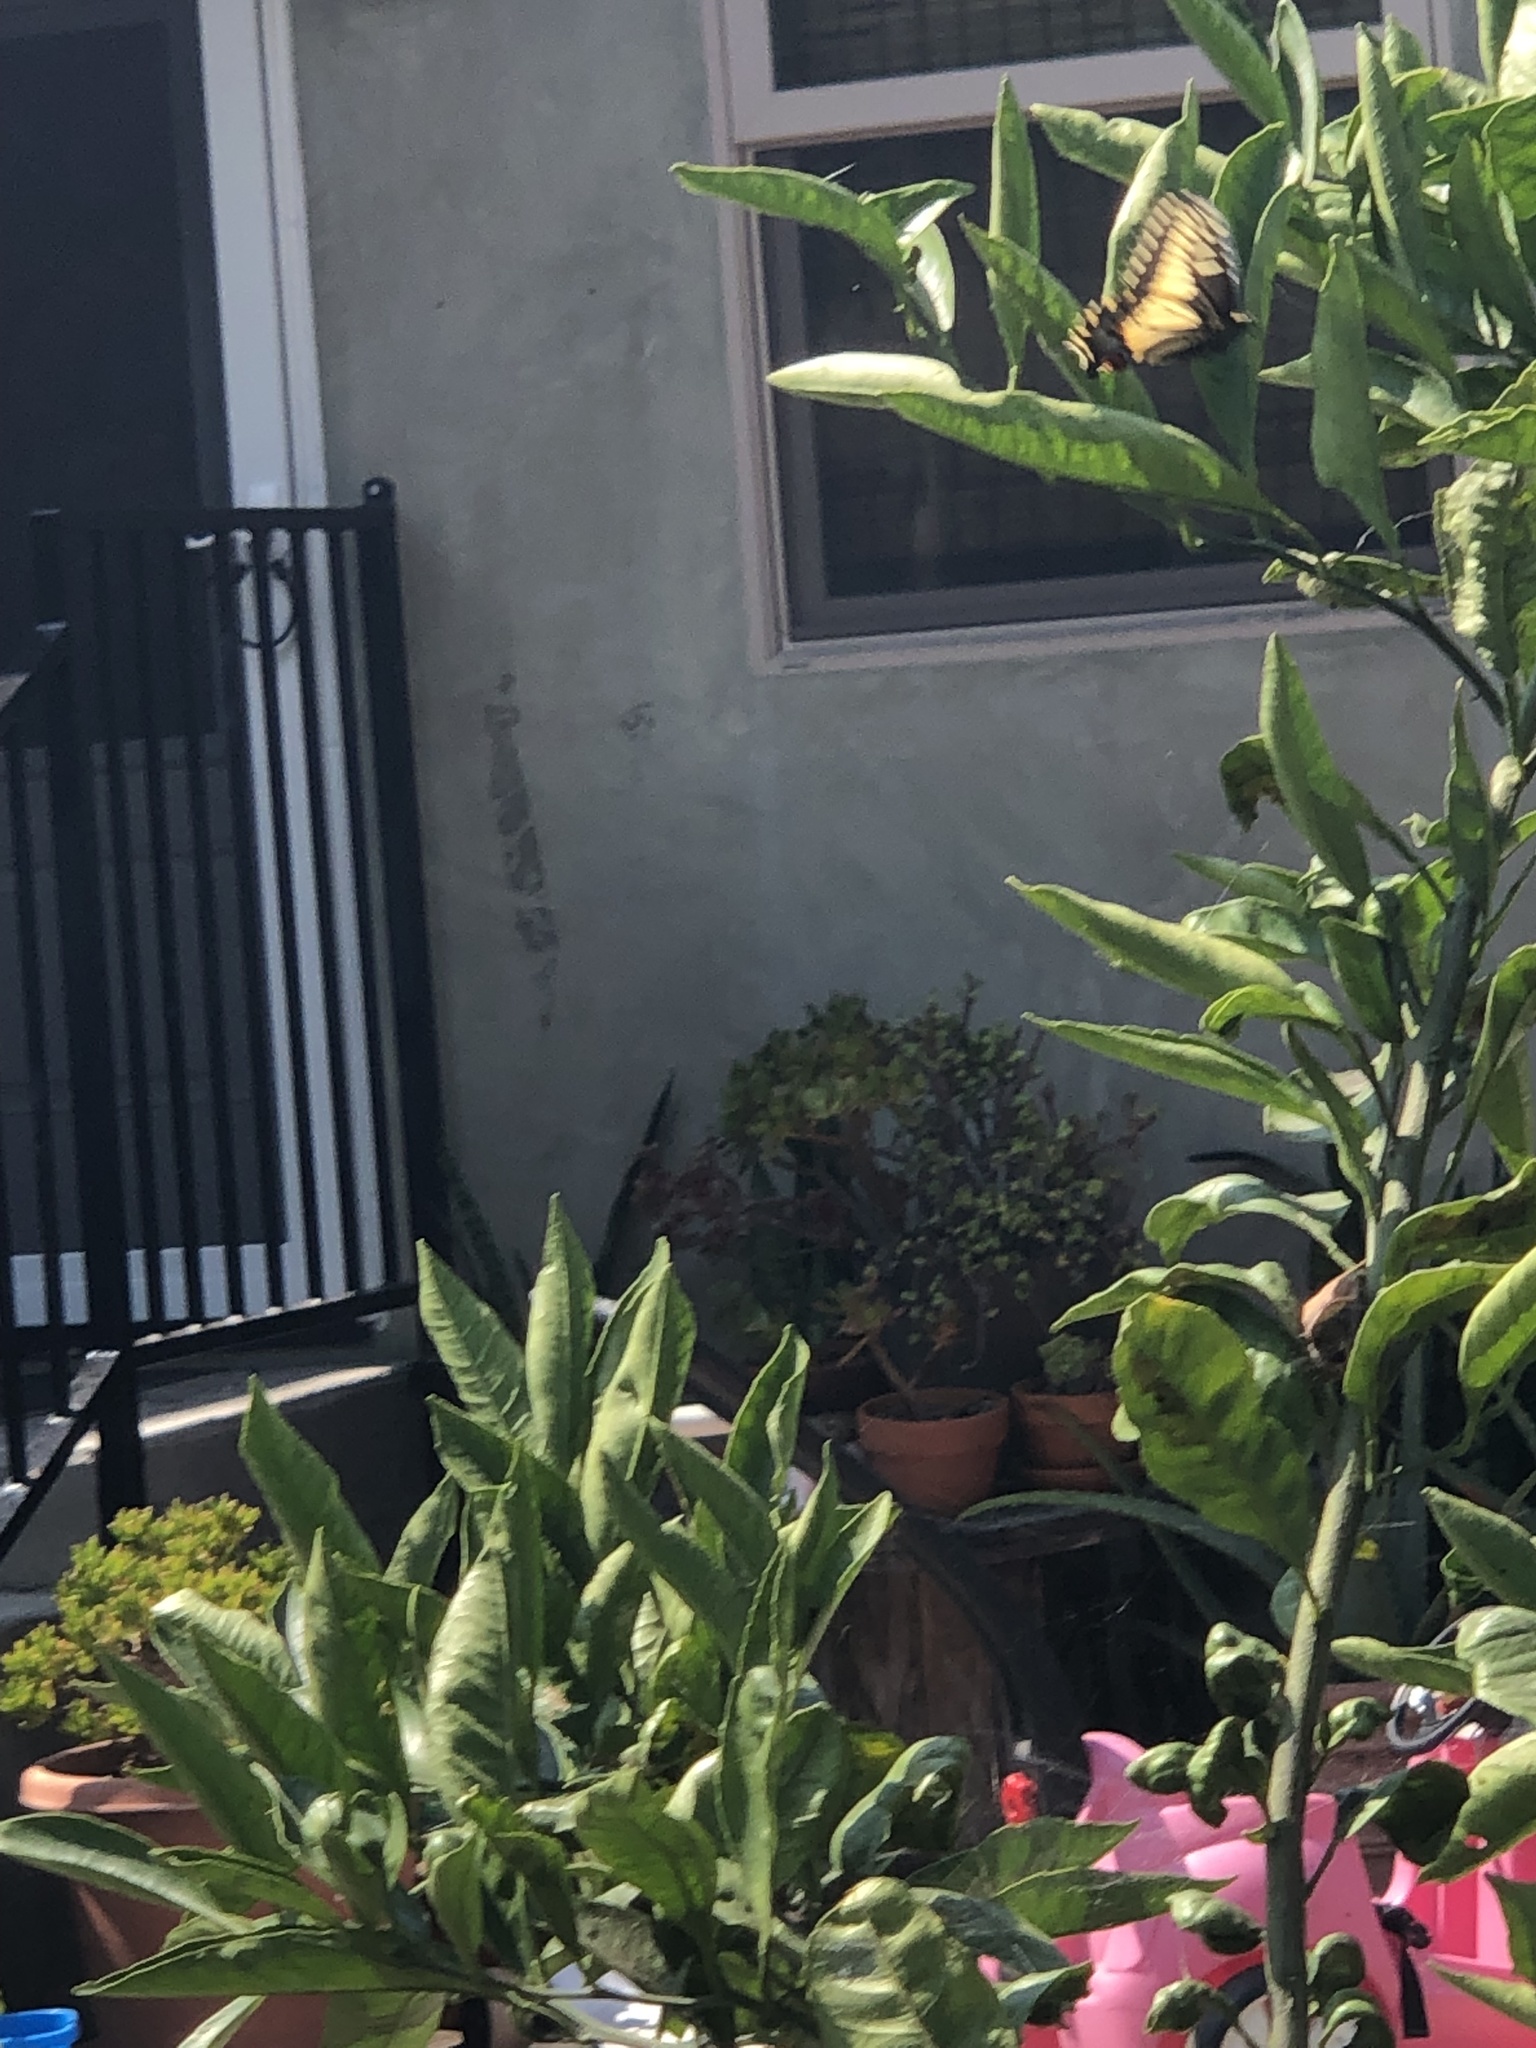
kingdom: Animalia
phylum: Arthropoda
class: Insecta
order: Lepidoptera
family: Papilionidae
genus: Papilio
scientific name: Papilio zelicaon
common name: Anise swallowtail
